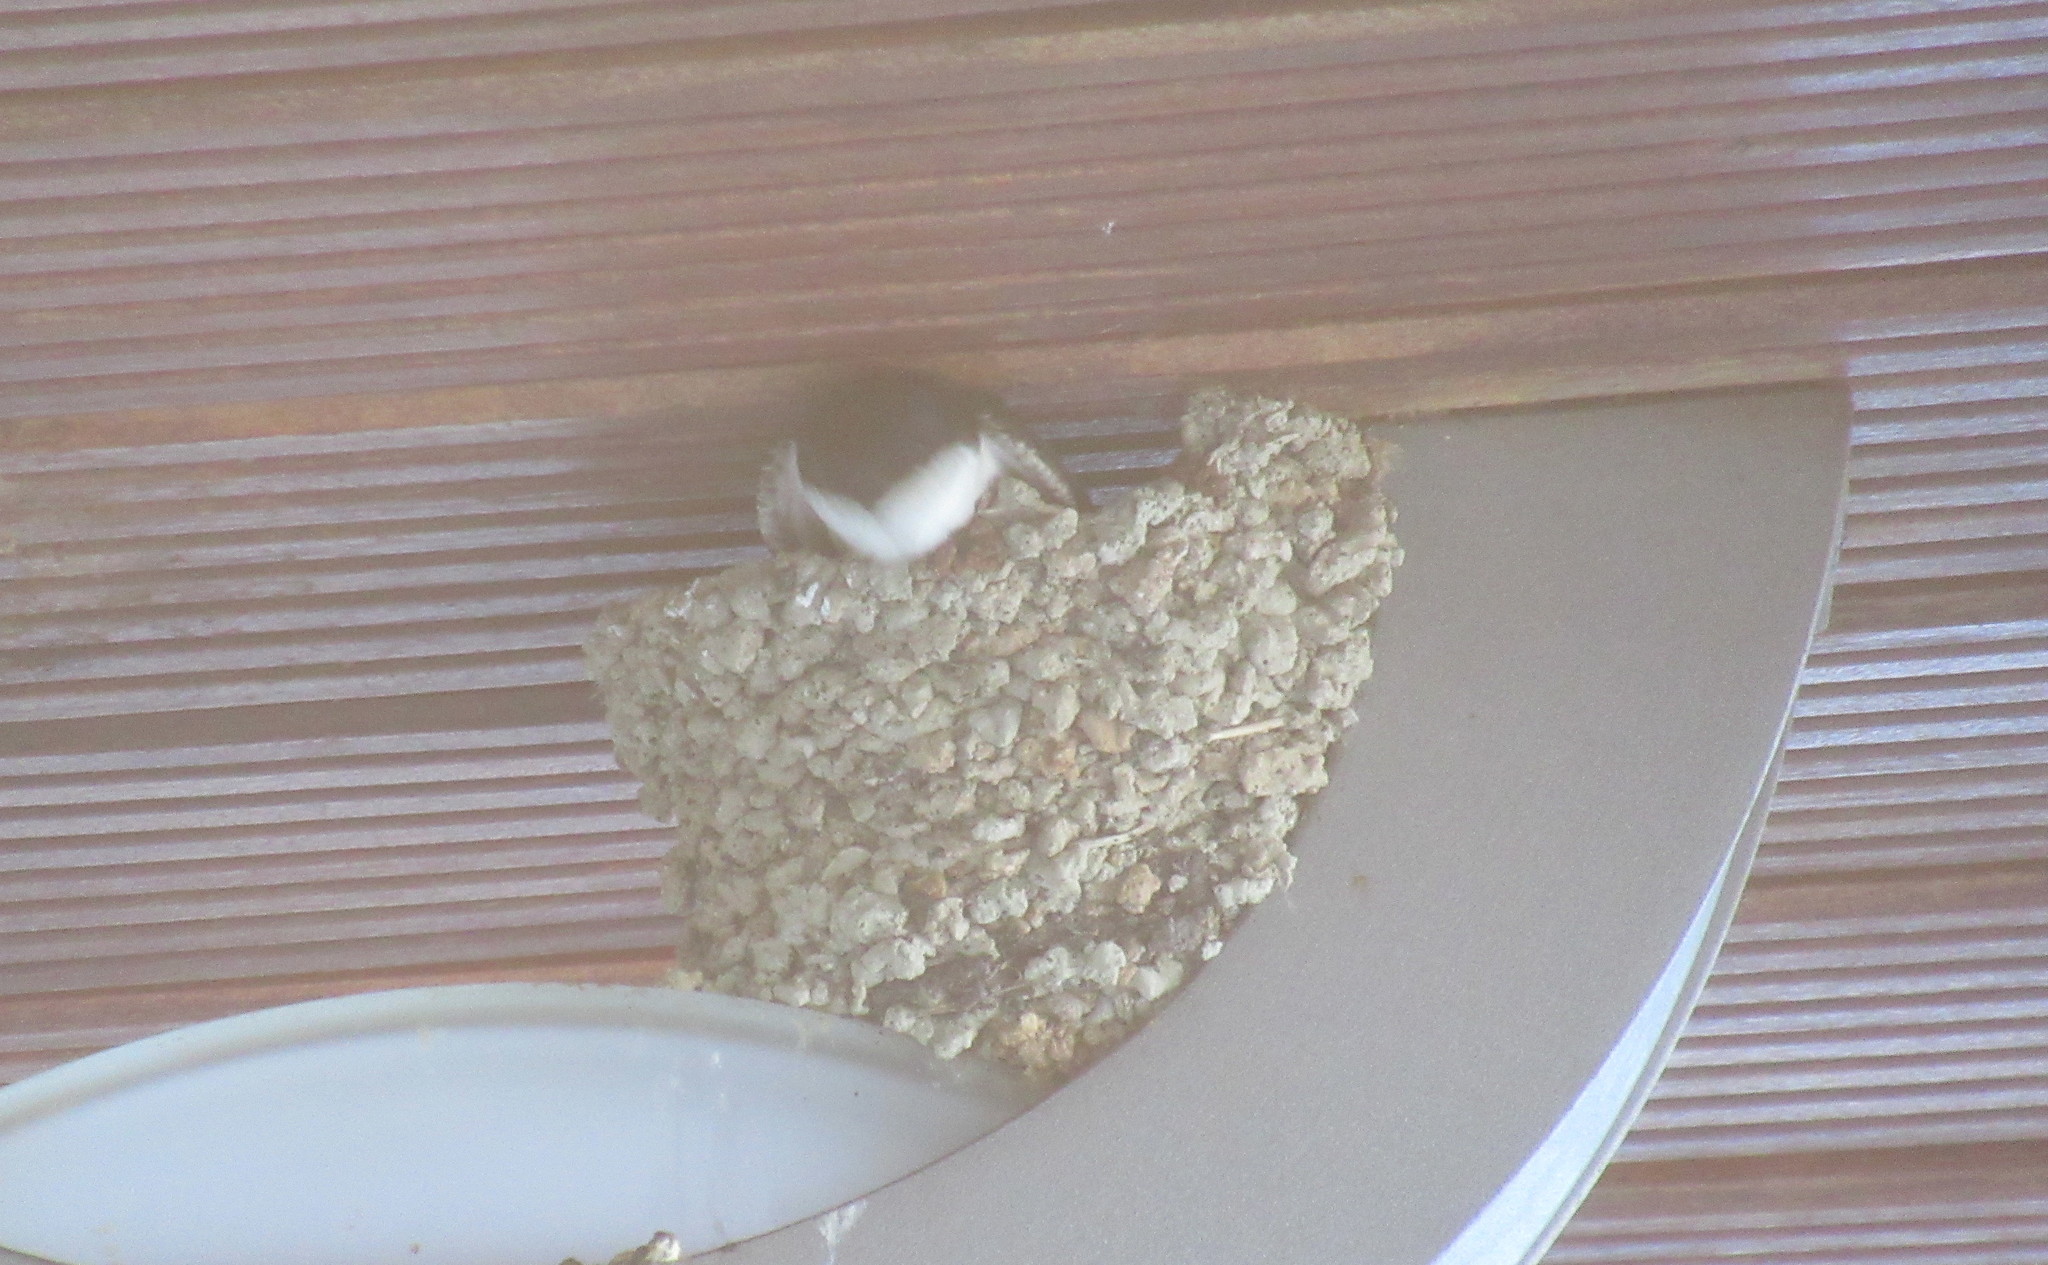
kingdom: Animalia
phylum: Chordata
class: Aves
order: Passeriformes
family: Hirundinidae
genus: Delichon
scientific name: Delichon urbicum
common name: Common house martin
